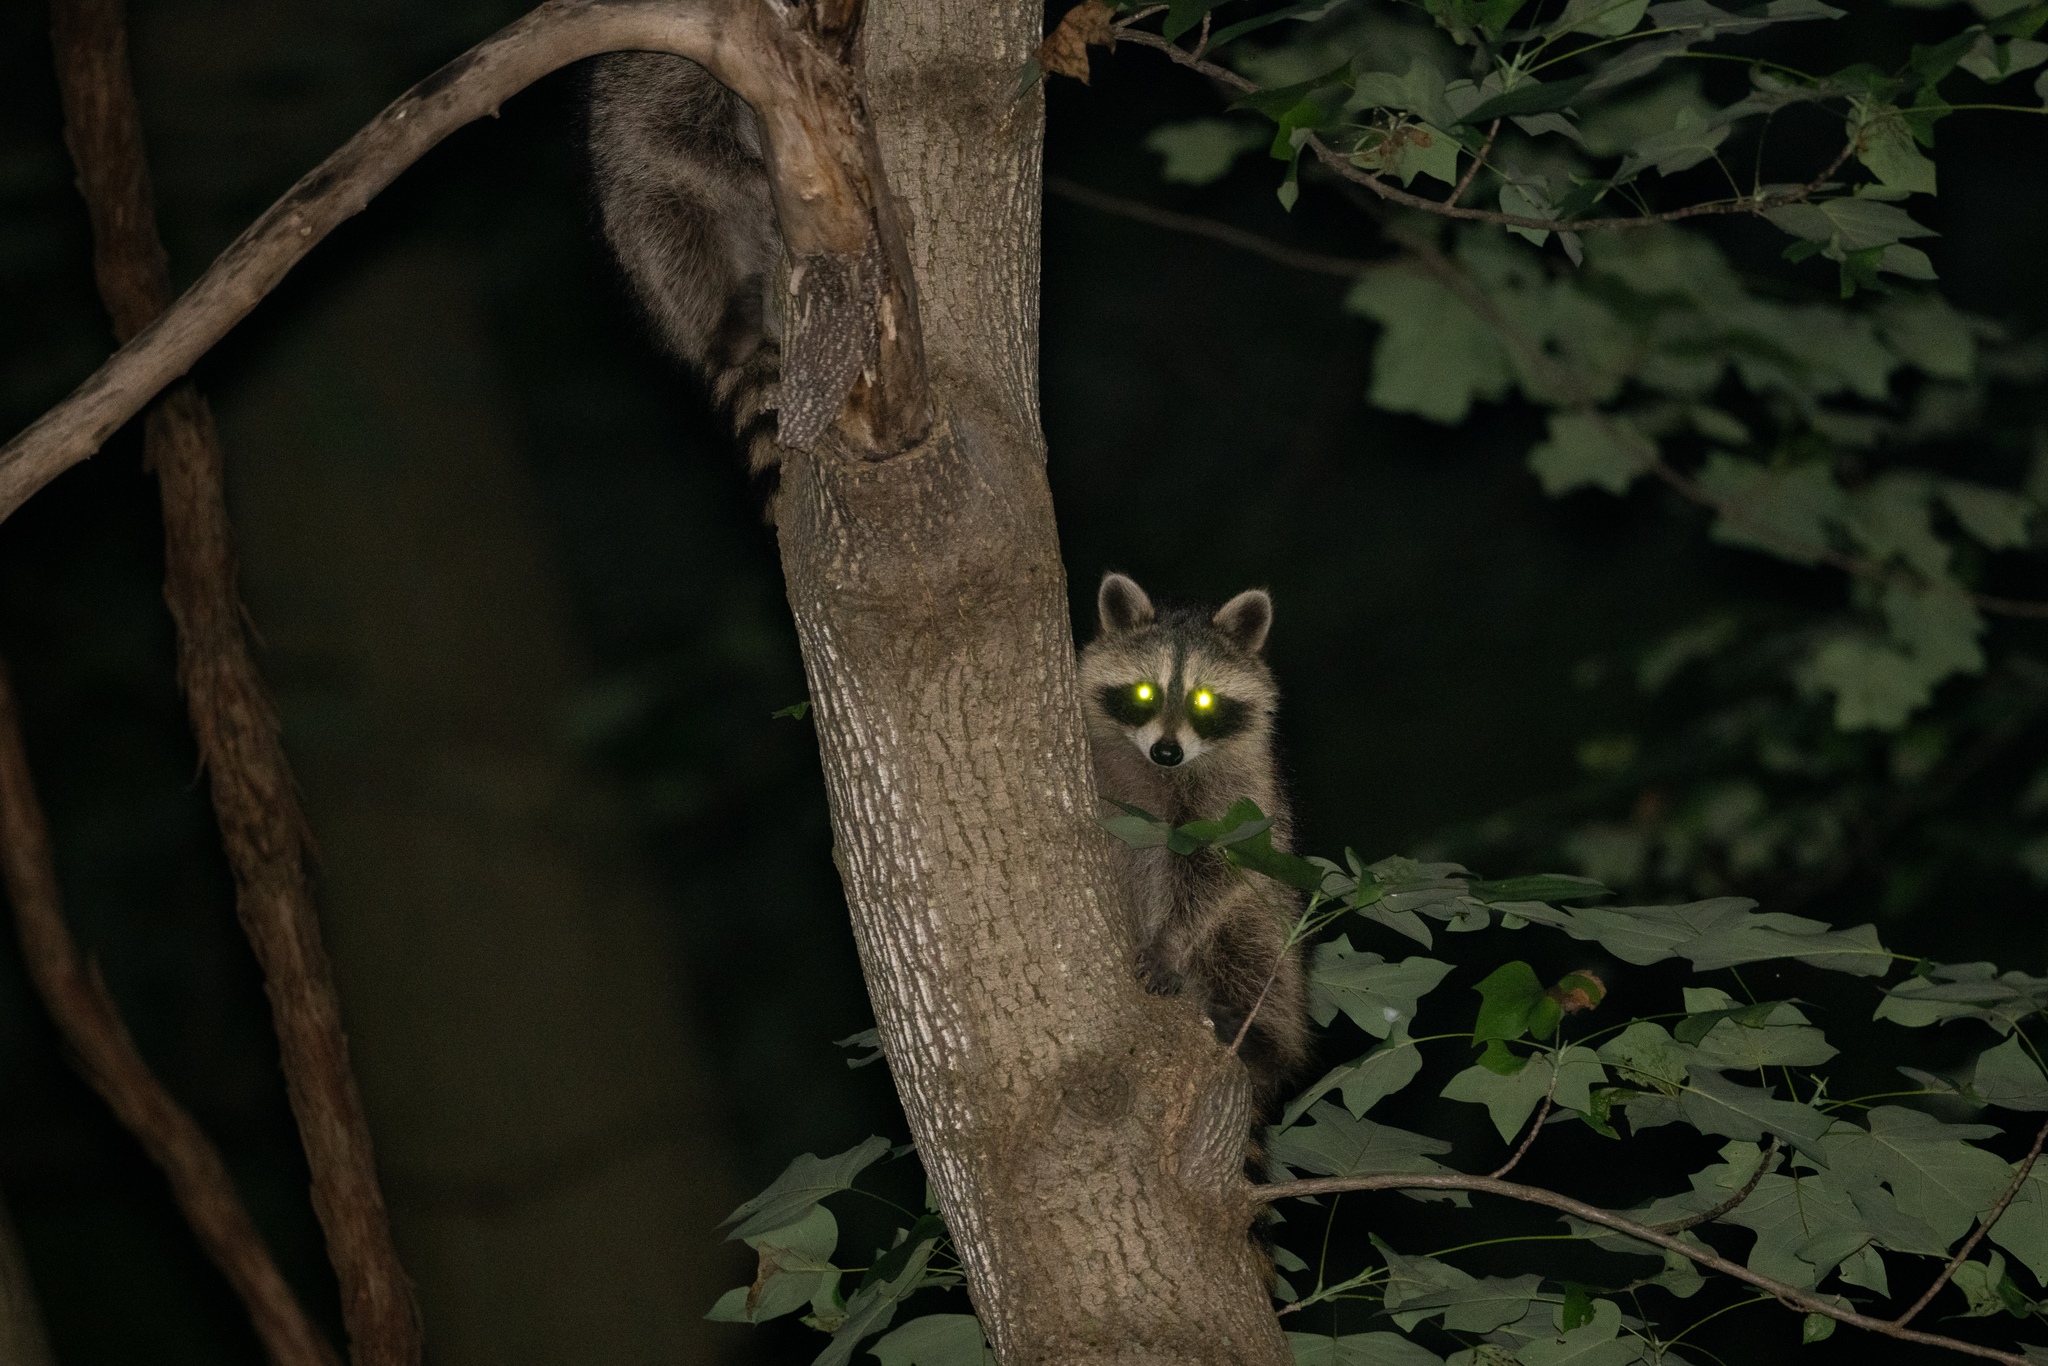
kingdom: Animalia
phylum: Chordata
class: Mammalia
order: Carnivora
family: Procyonidae
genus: Procyon
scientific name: Procyon lotor
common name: Raccoon
